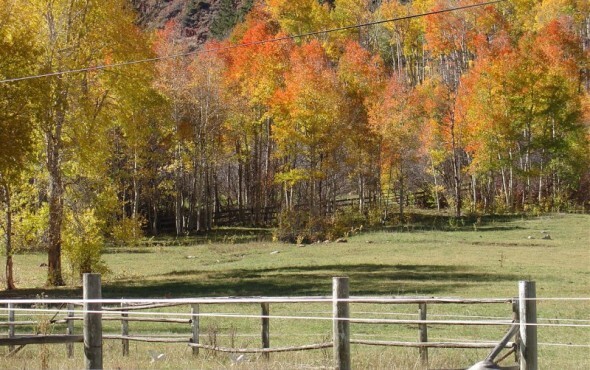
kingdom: Plantae
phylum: Tracheophyta
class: Magnoliopsida
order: Malpighiales
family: Salicaceae
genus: Populus
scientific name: Populus tremuloides
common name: Quaking aspen
